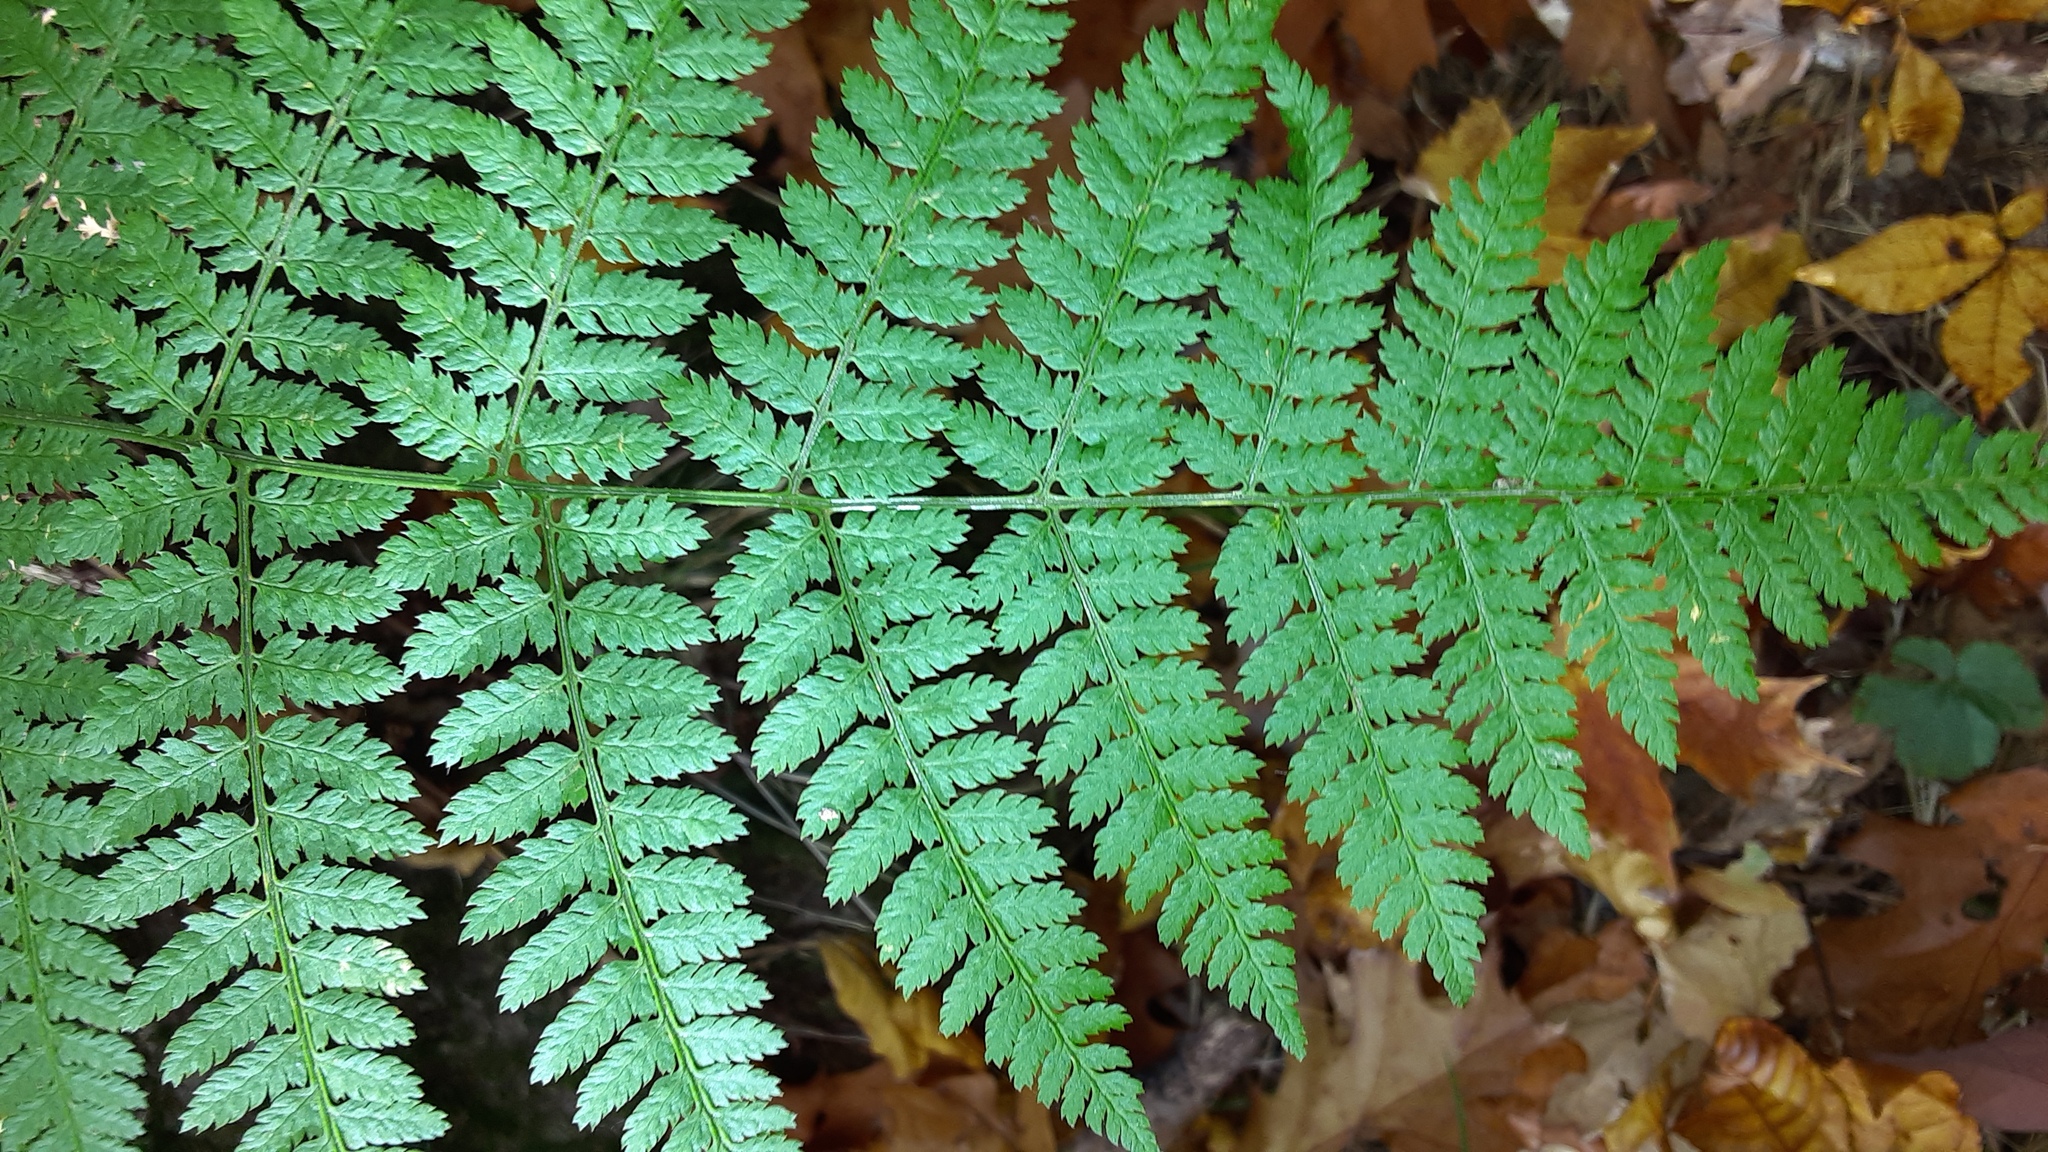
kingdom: Plantae
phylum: Tracheophyta
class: Polypodiopsida
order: Polypodiales
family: Dryopteridaceae
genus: Dryopteris
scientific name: Dryopteris intermedia
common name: Evergreen wood fern
